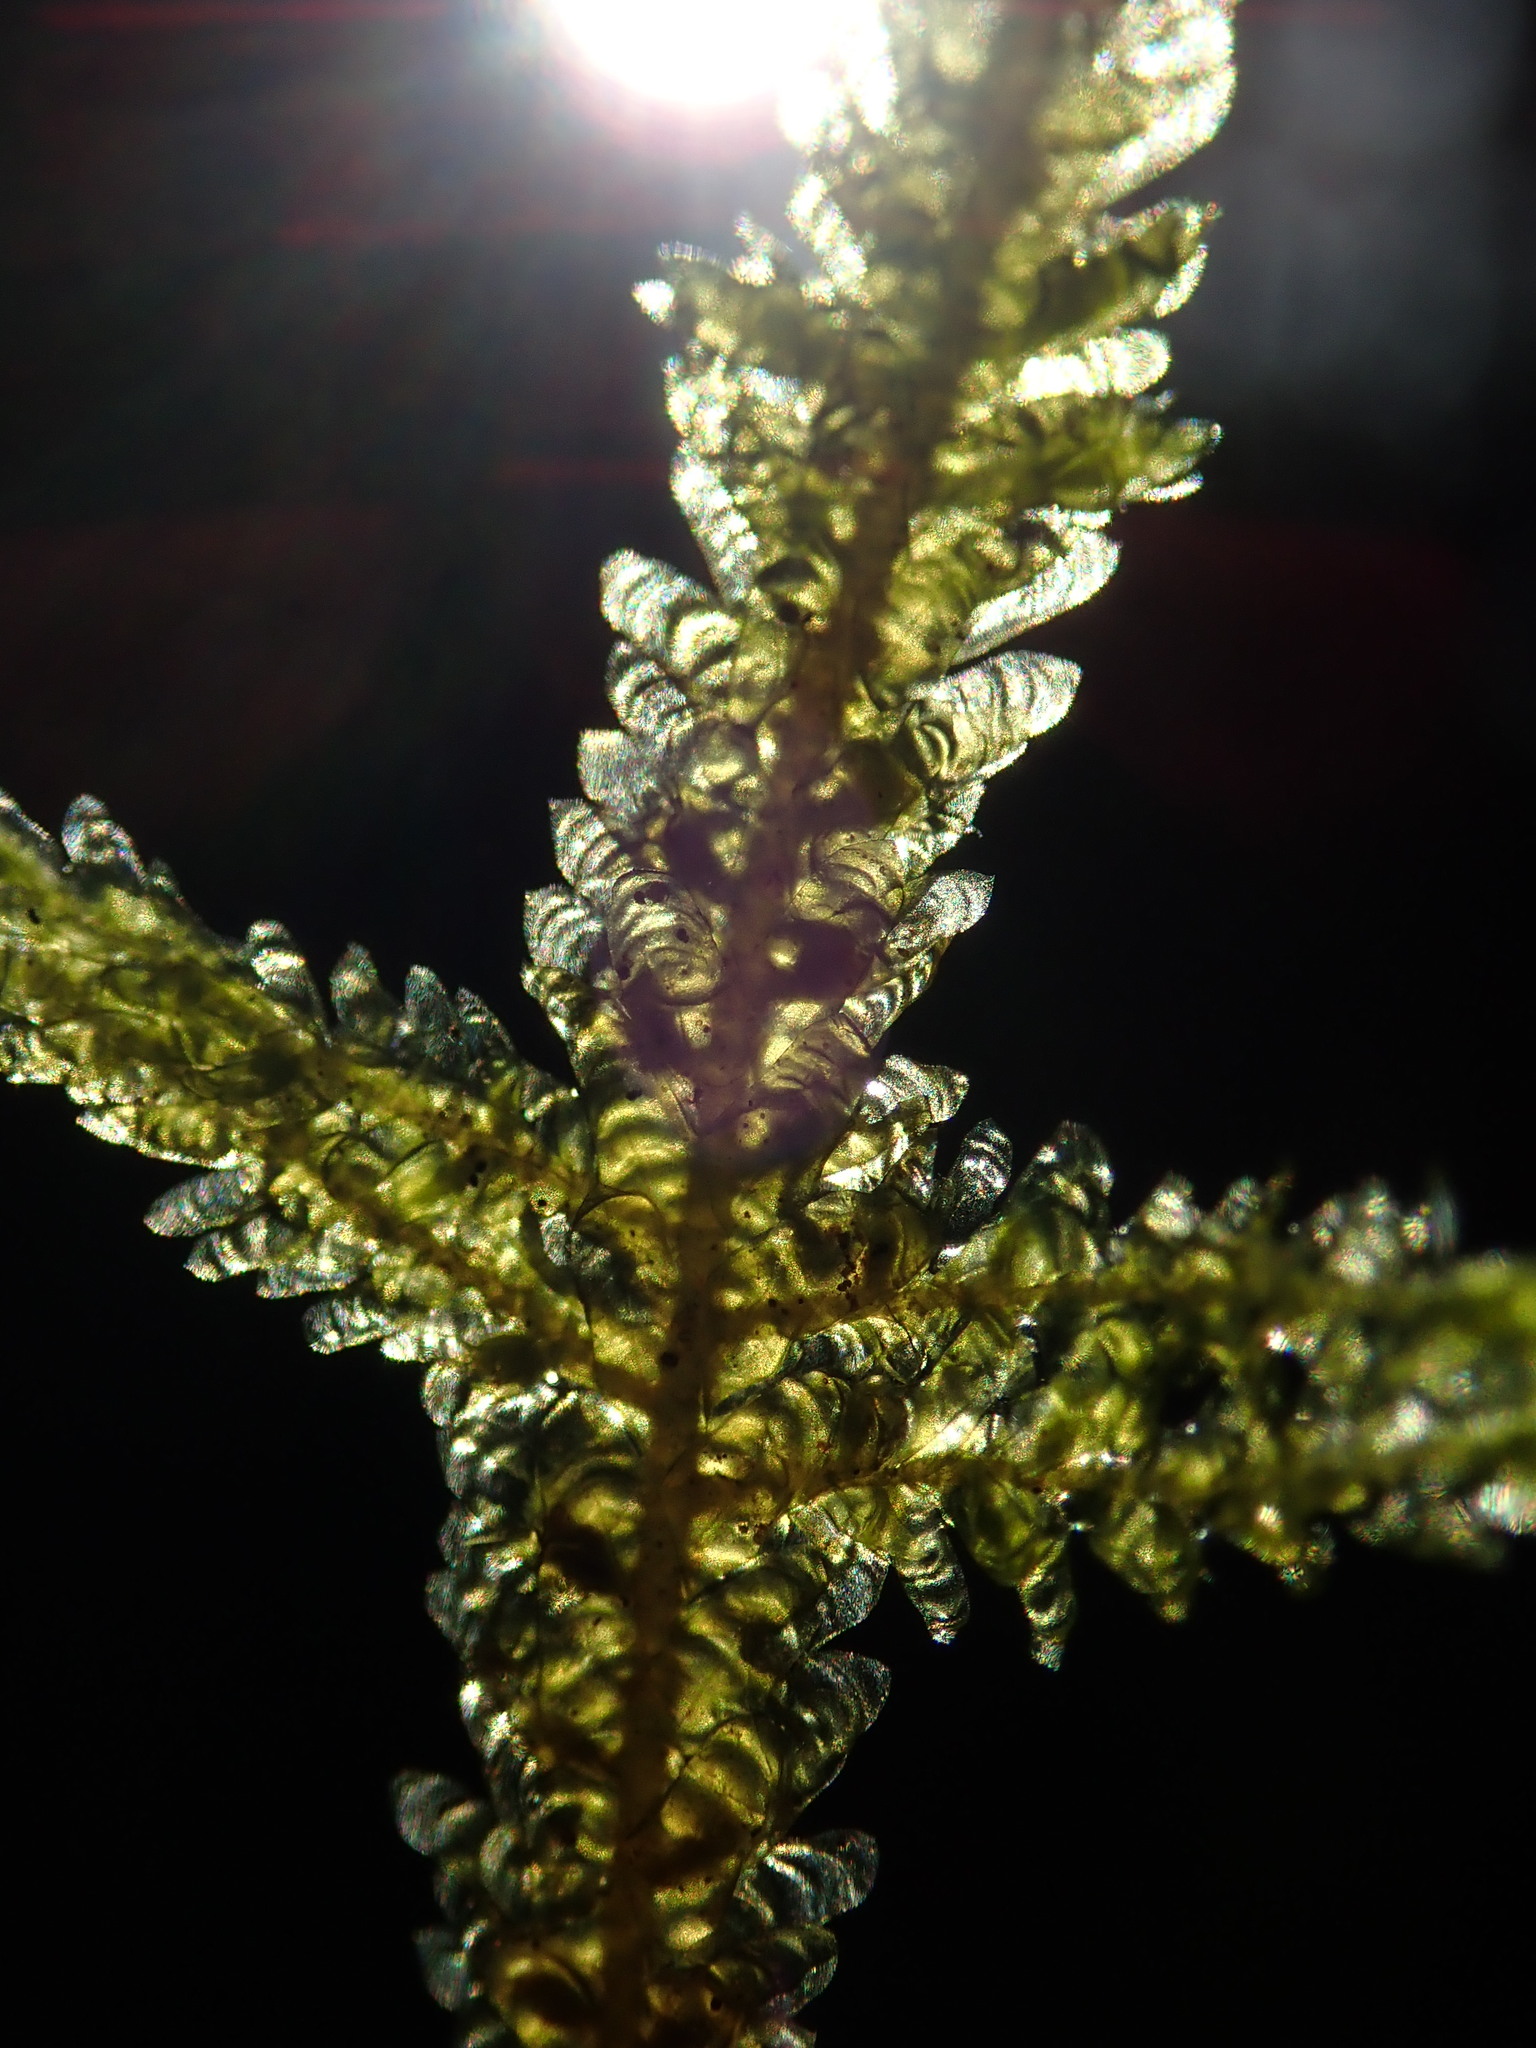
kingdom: Plantae
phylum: Bryophyta
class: Bryopsida
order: Hypnales
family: Neckeraceae
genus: Neckera
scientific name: Neckera douglasii
